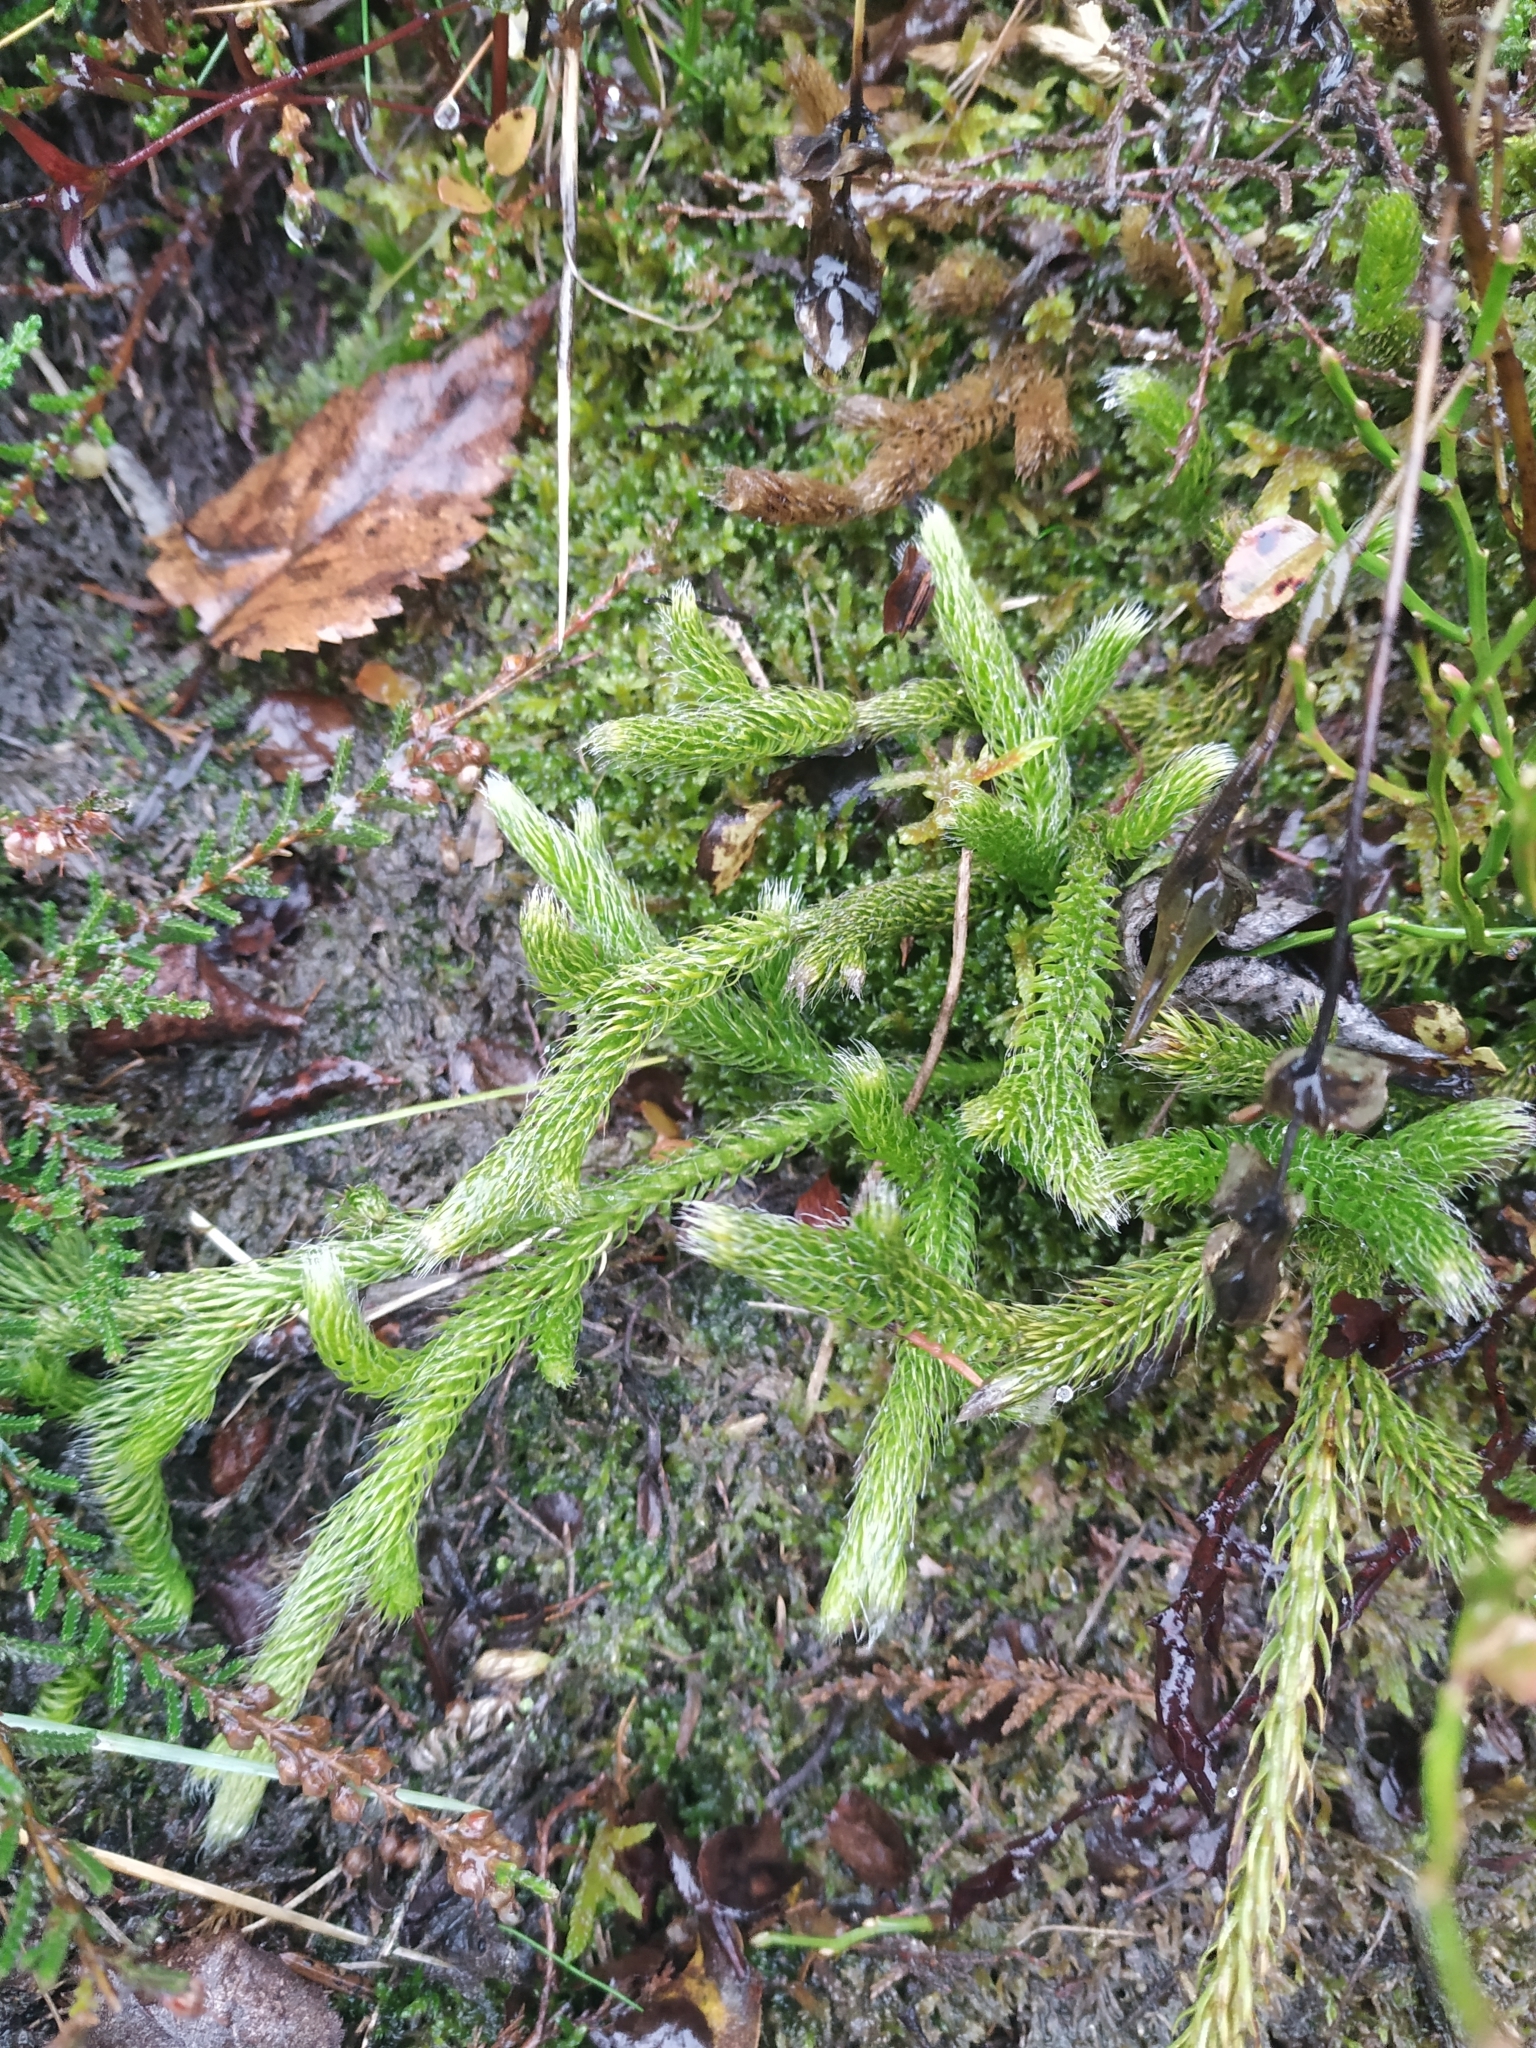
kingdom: Plantae
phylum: Tracheophyta
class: Lycopodiopsida
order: Lycopodiales
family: Lycopodiaceae
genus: Lycopodium
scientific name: Lycopodium clavatum
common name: Stag's-horn clubmoss
